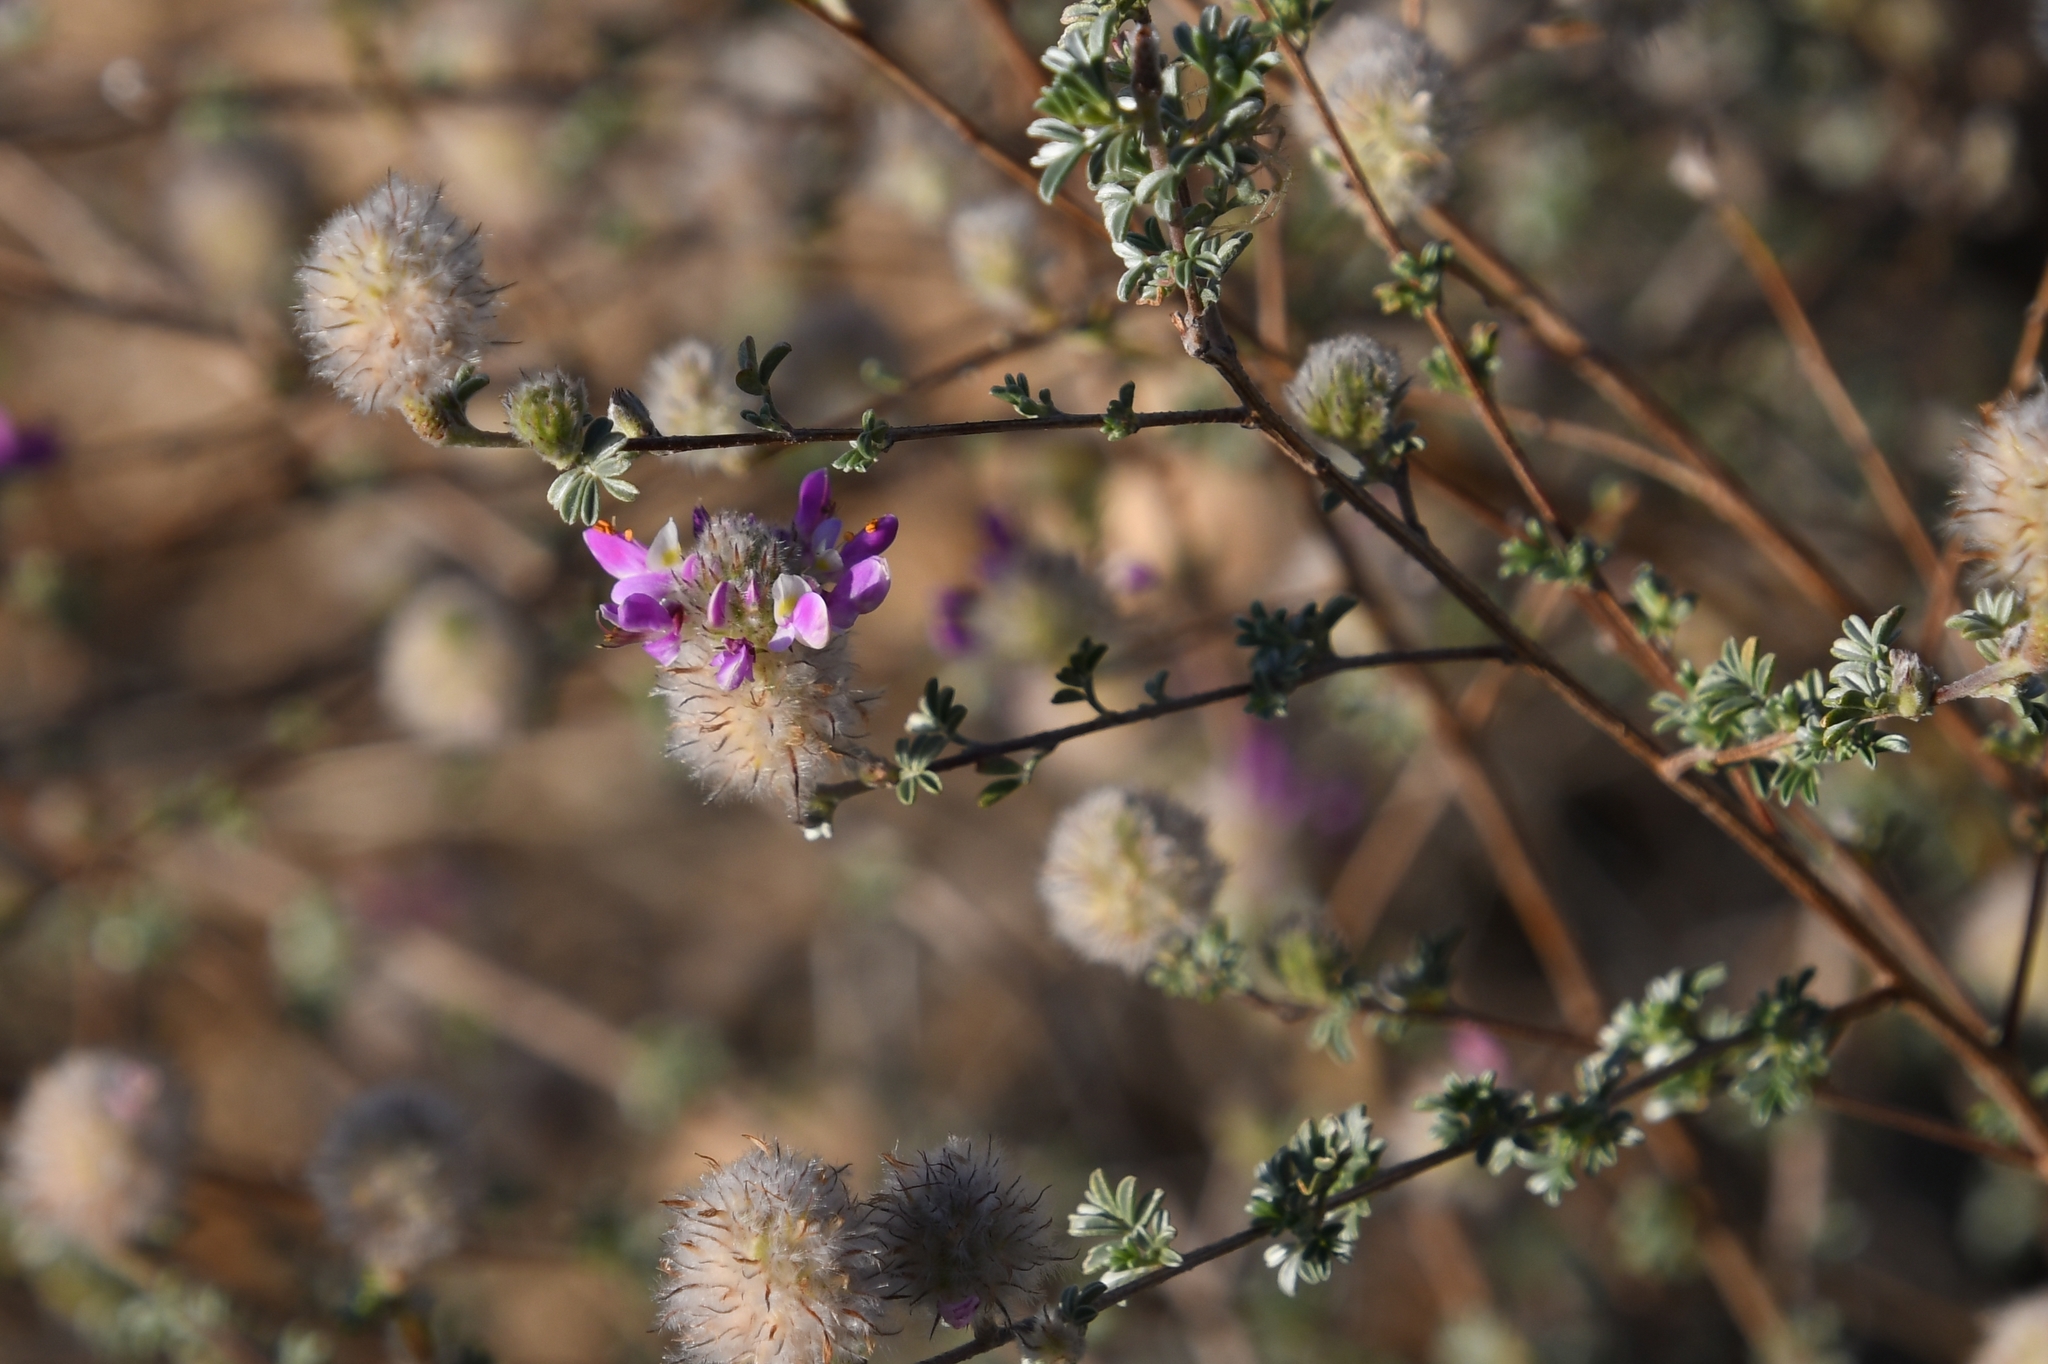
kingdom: Plantae
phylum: Tracheophyta
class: Magnoliopsida
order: Fabales
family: Fabaceae
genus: Dalea
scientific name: Dalea pulchra
